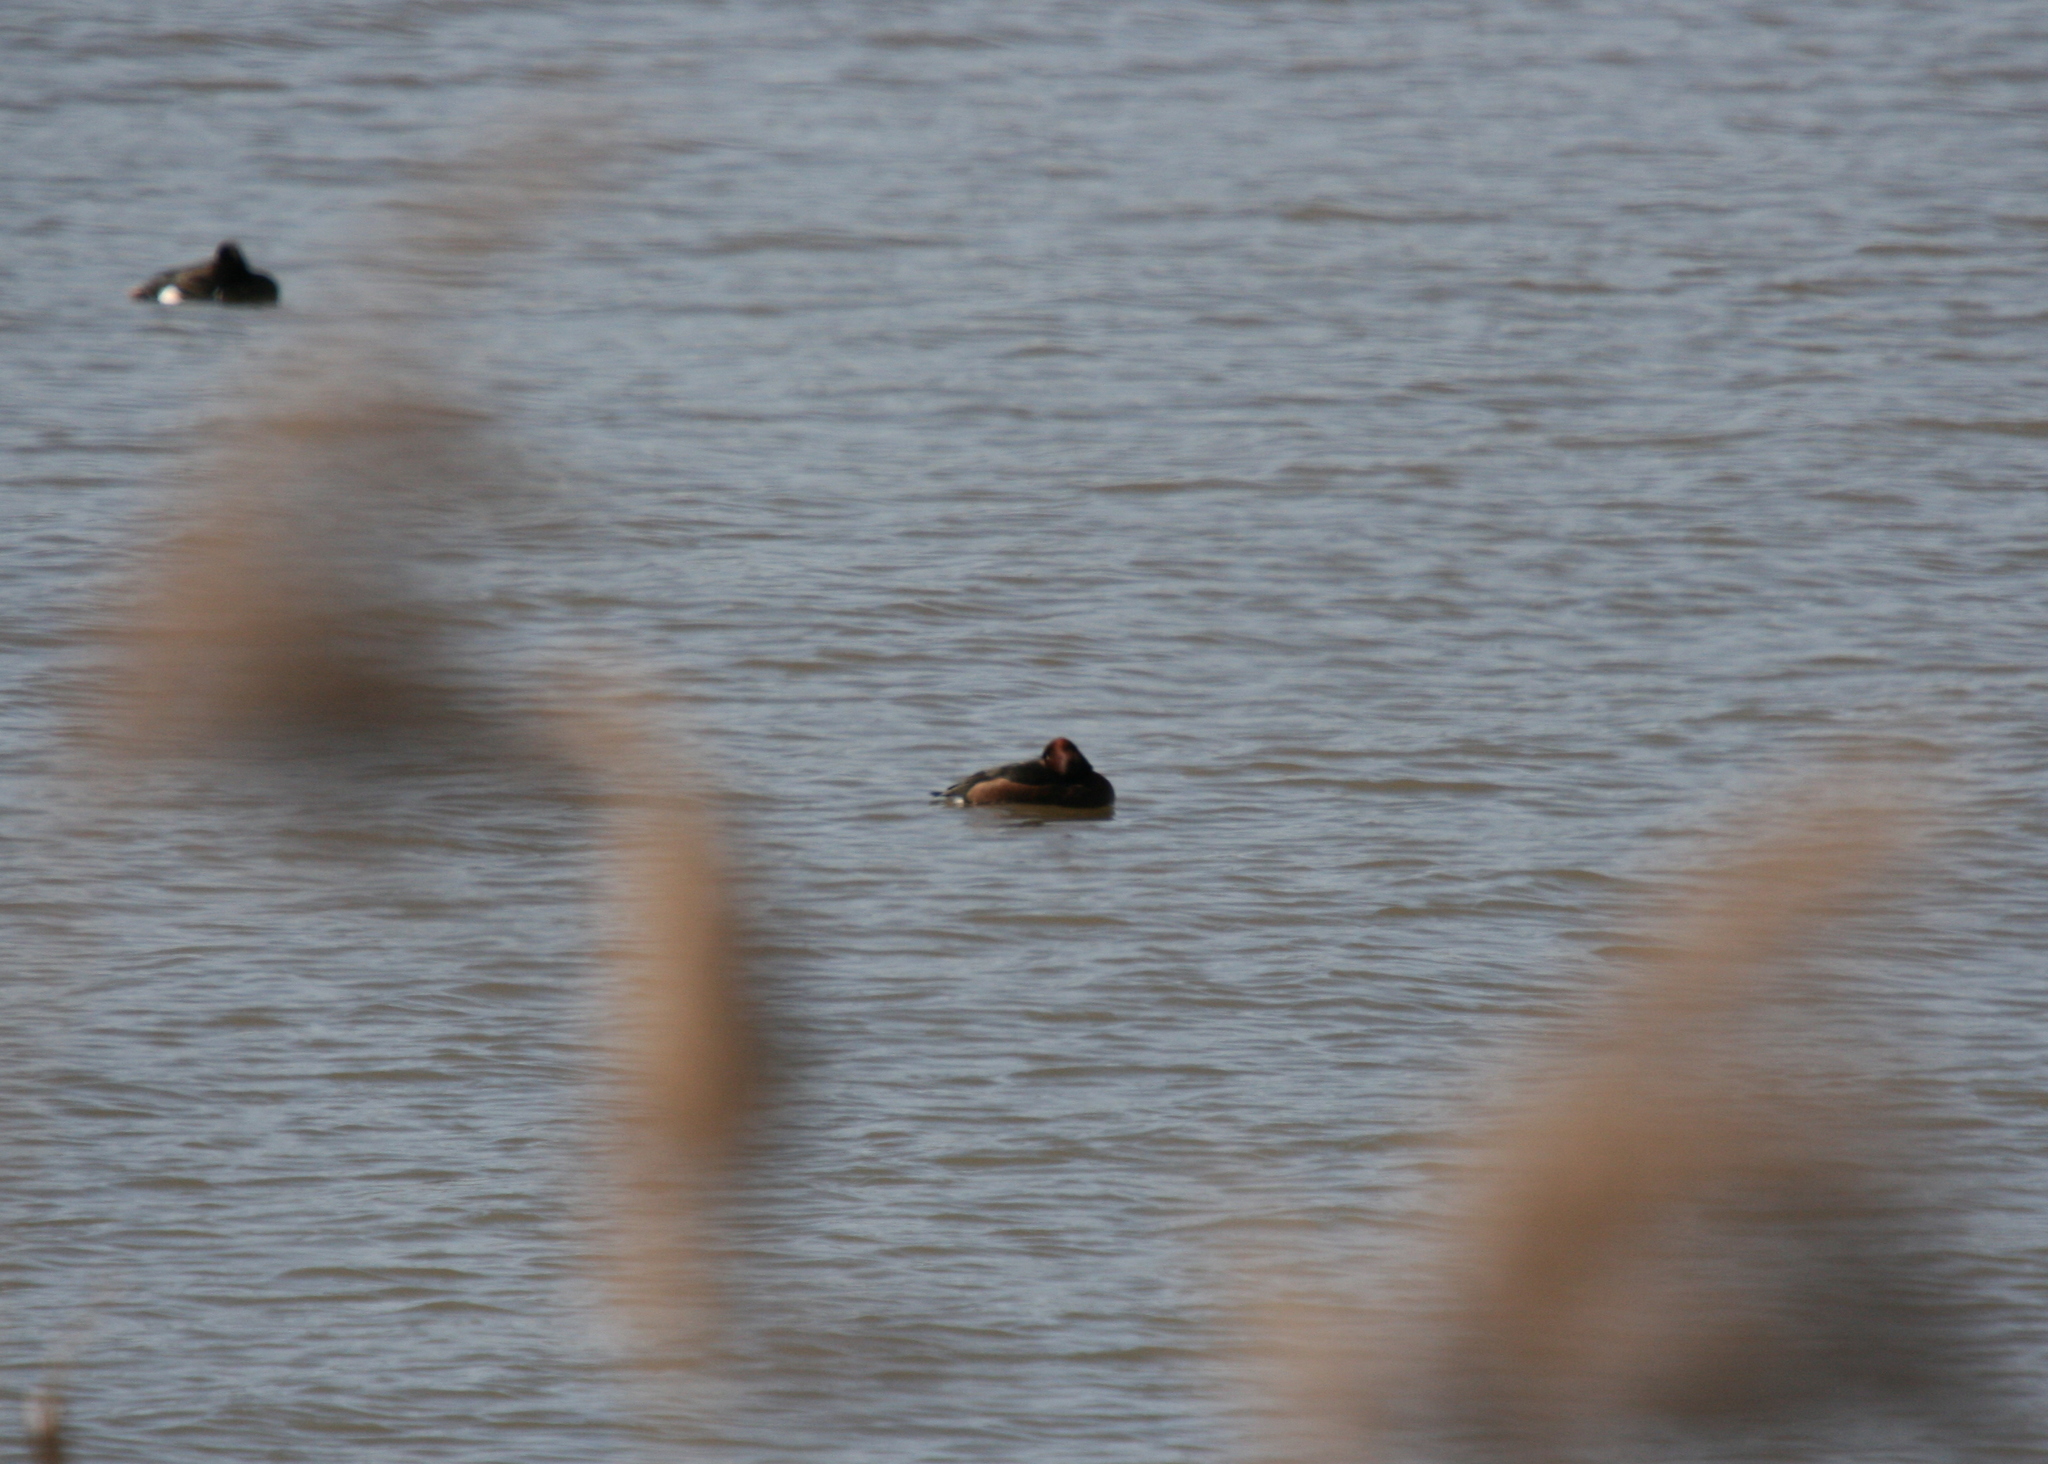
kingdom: Animalia
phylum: Chordata
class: Aves
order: Anseriformes
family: Anatidae
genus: Aythya
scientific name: Aythya nyroca
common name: Ferruginous duck
